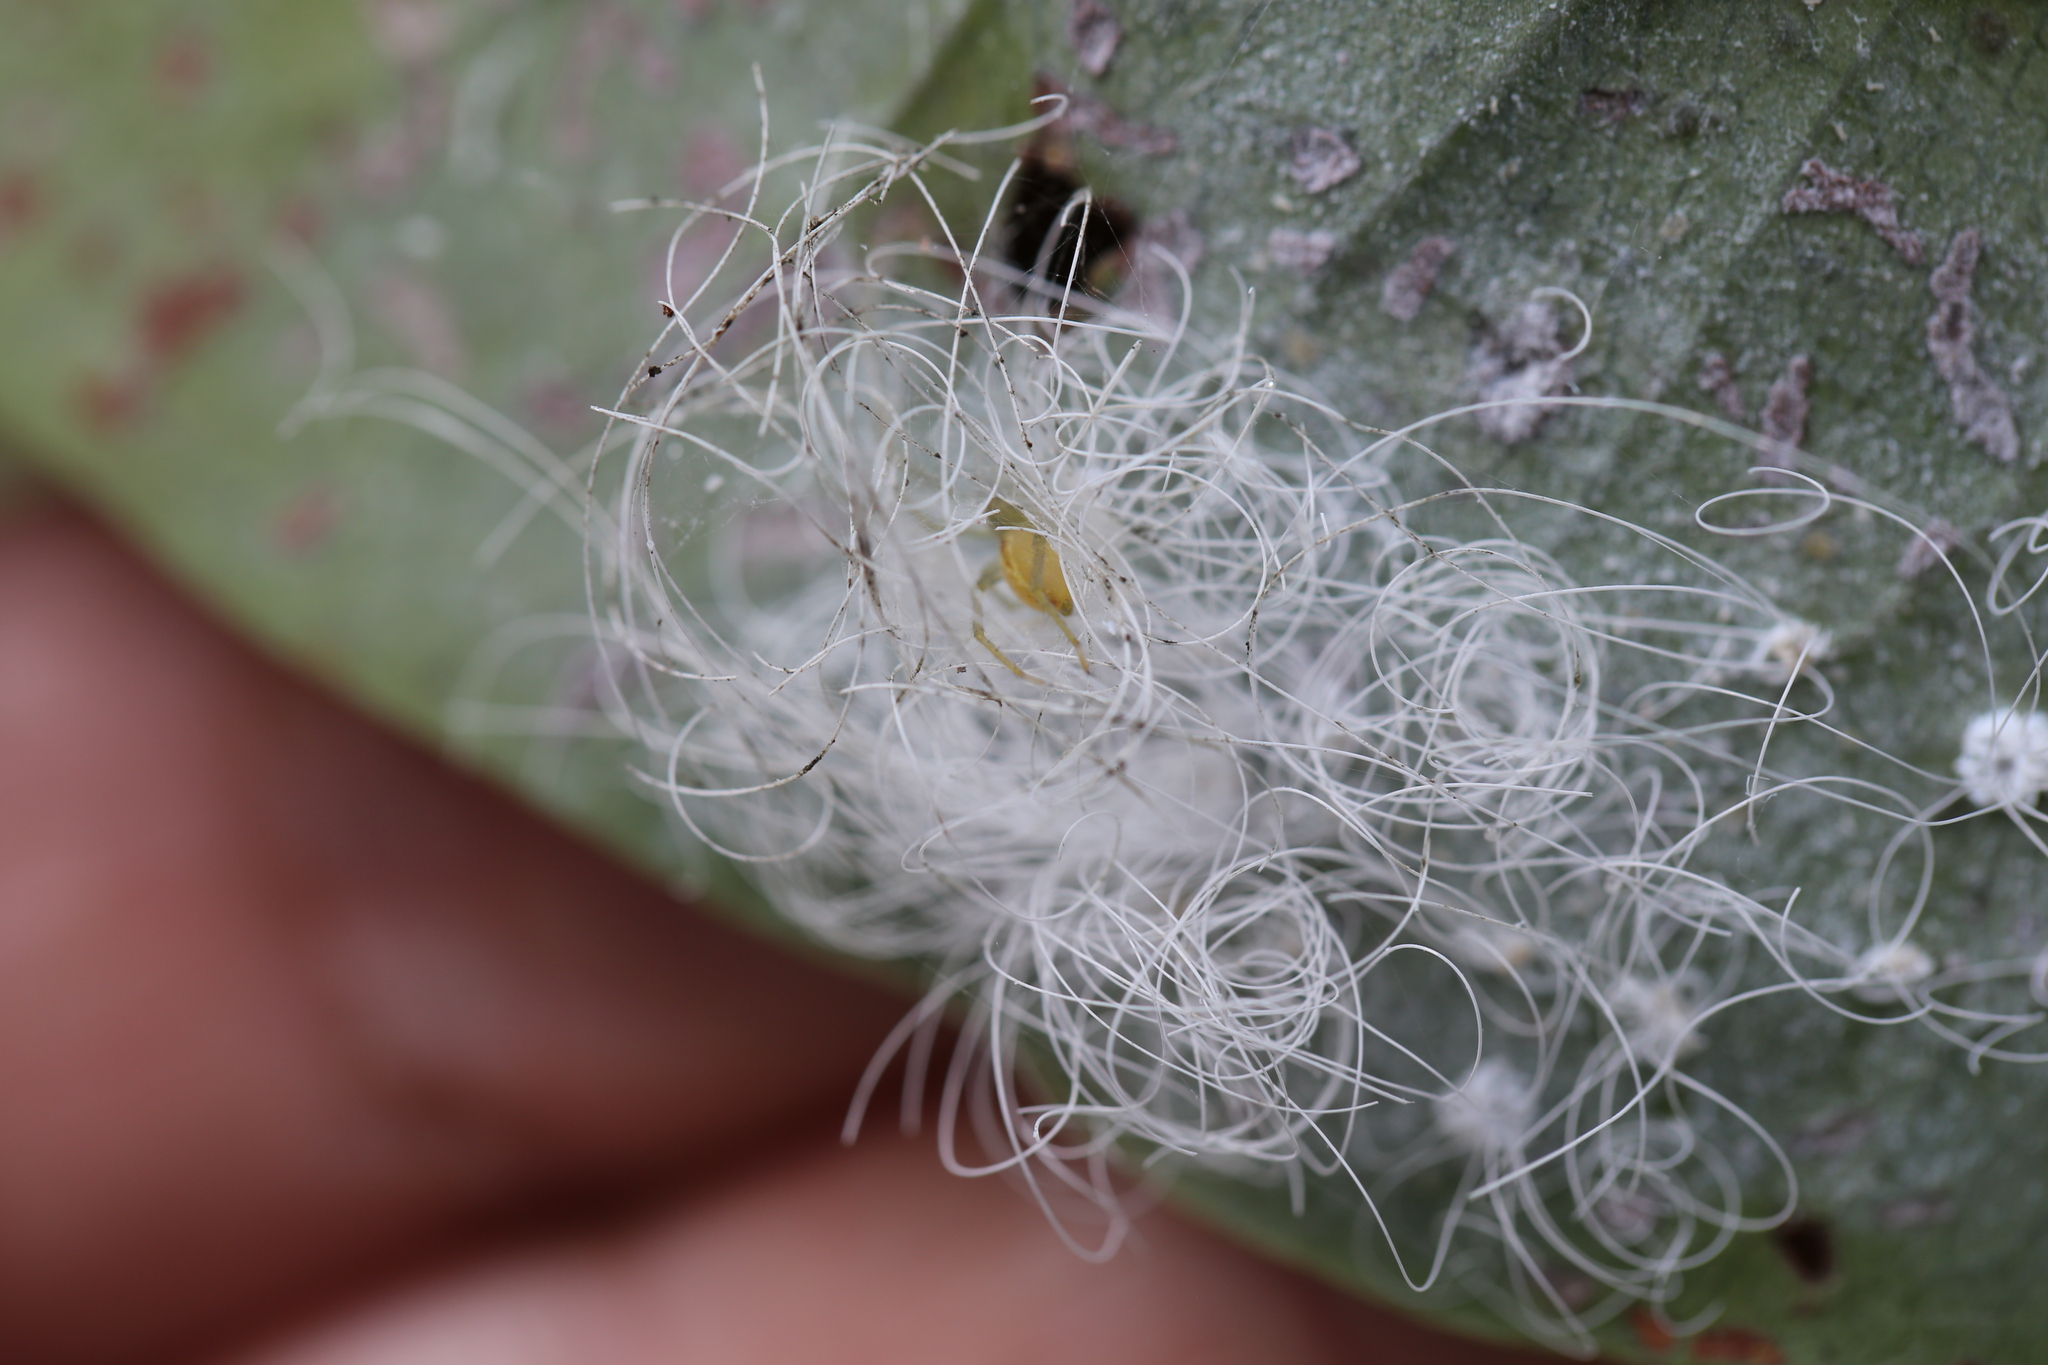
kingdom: Animalia
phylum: Arthropoda
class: Insecta
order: Hemiptera
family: Aleyrodidae
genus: Aleuroctarthrus
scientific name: Aleuroctarthrus
